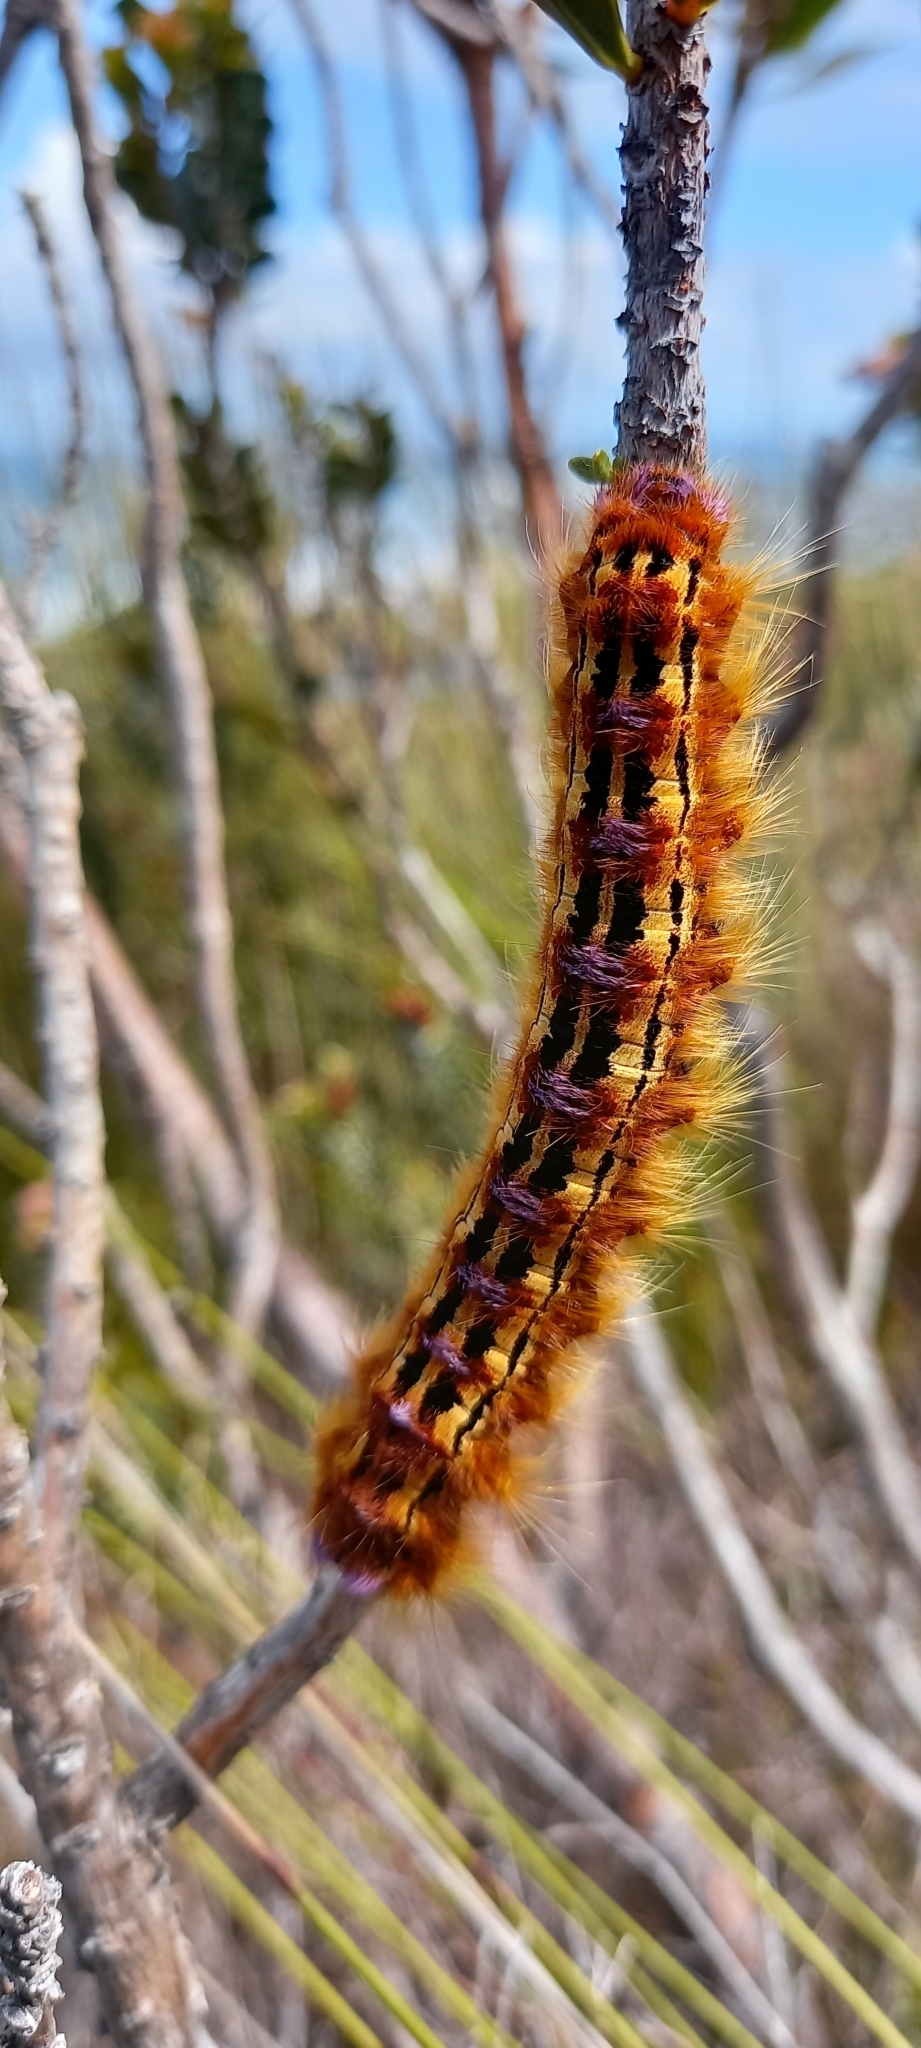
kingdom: Animalia
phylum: Arthropoda
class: Insecta
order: Lepidoptera
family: Lasiocampidae
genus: Eutricha
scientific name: Eutricha bifascia
